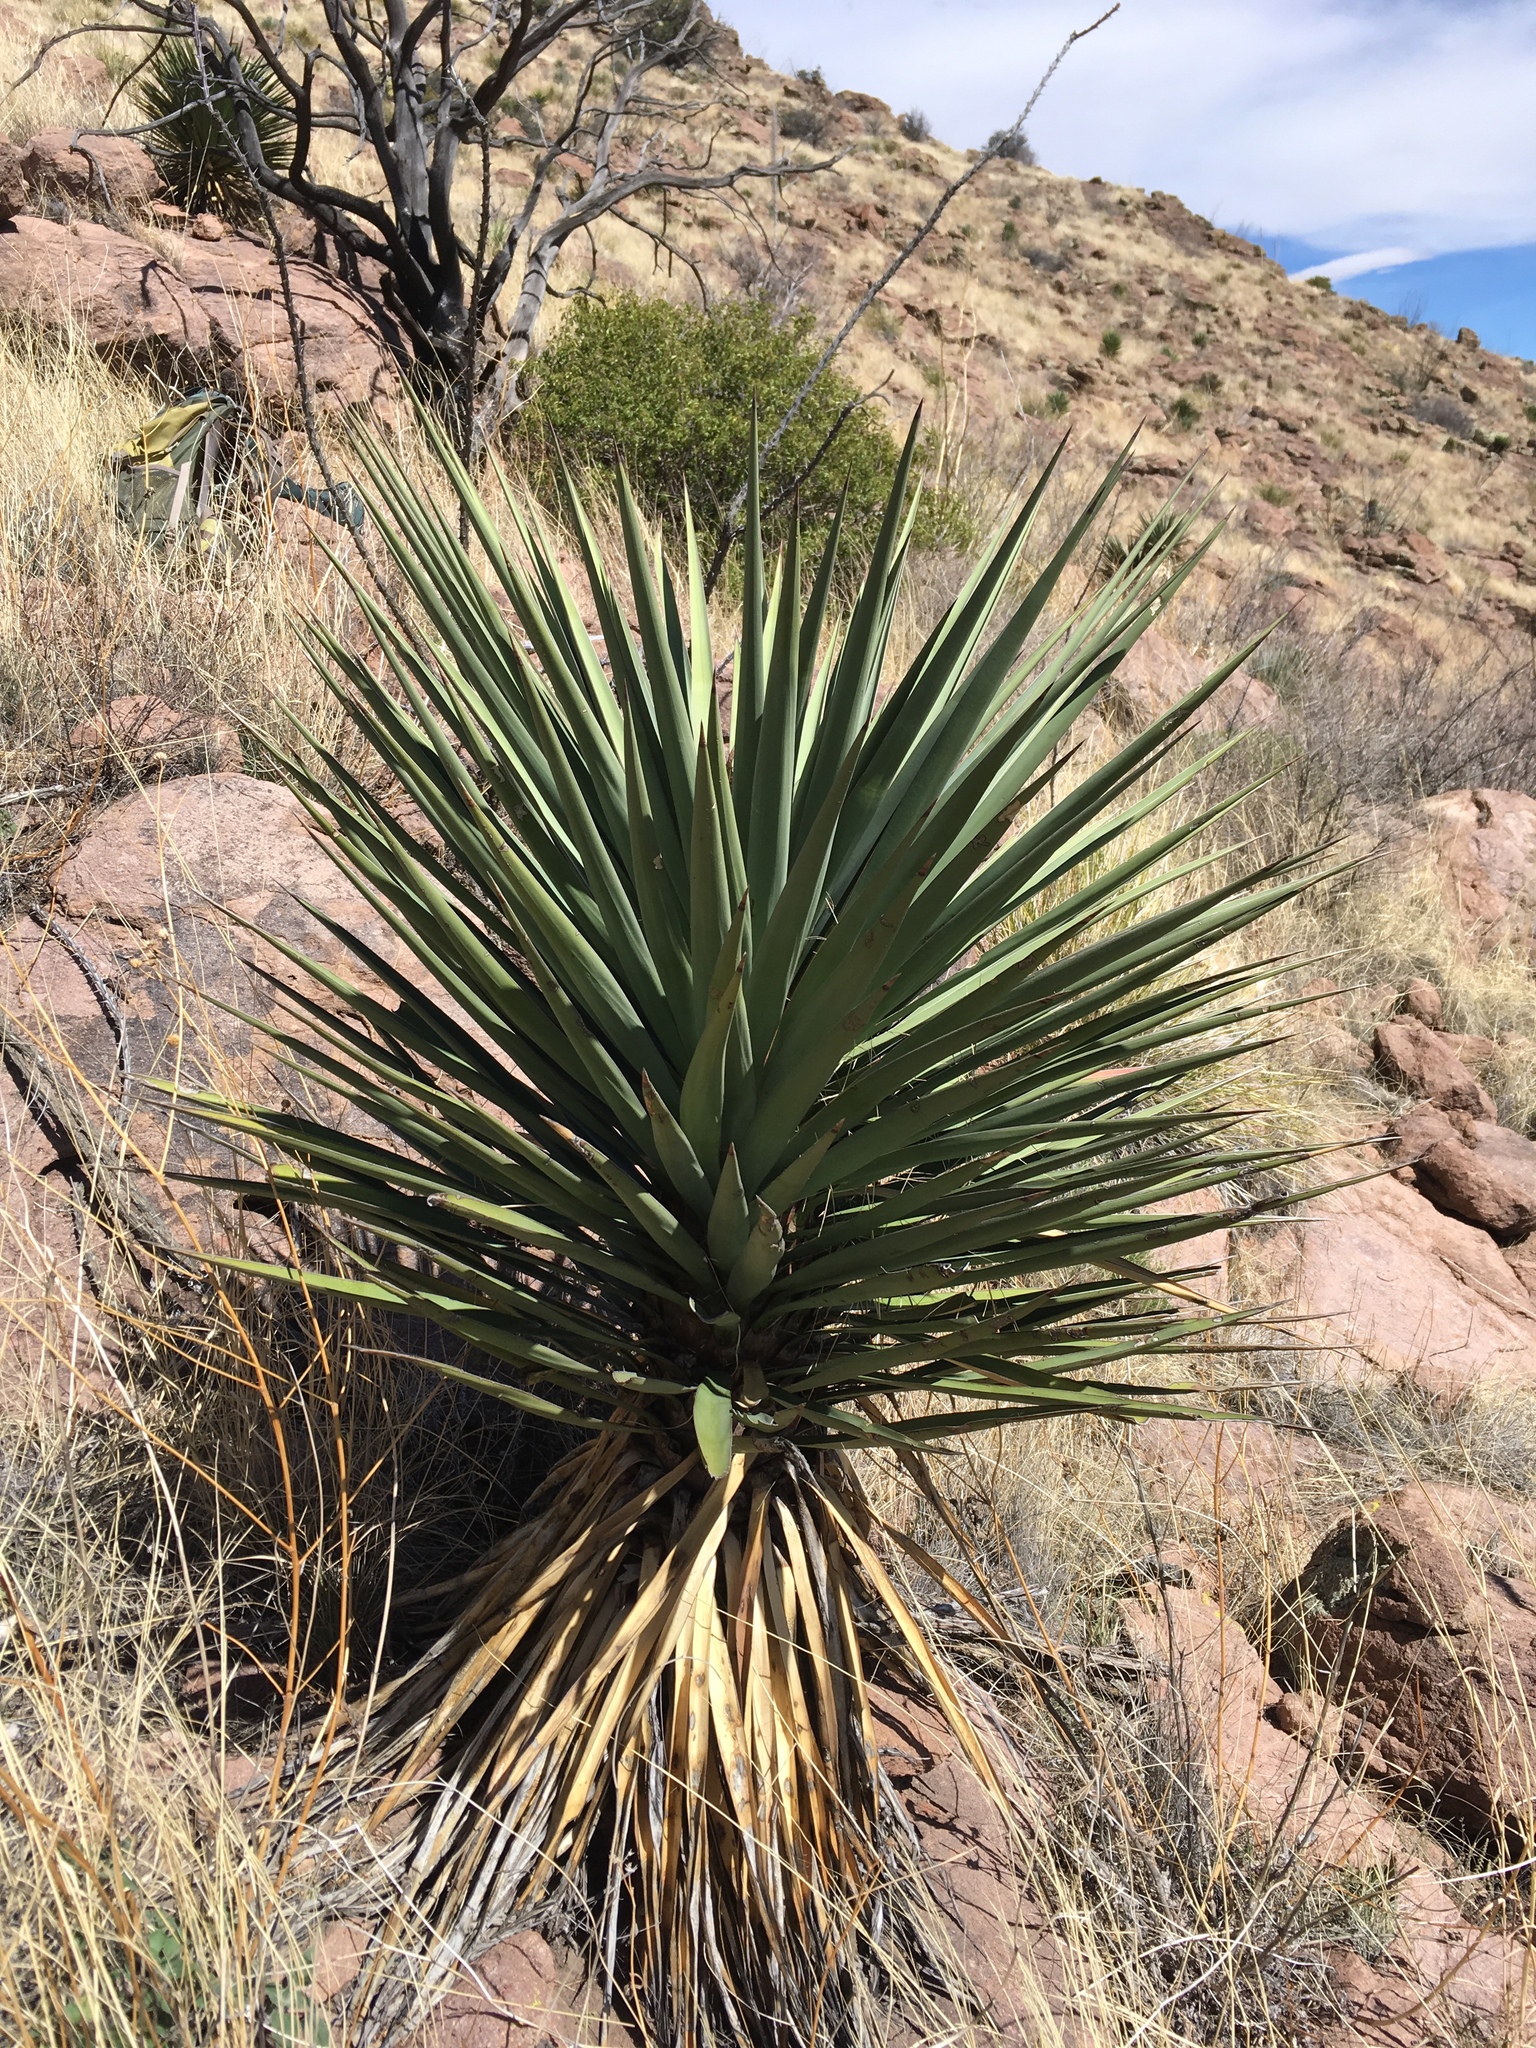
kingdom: Plantae
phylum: Tracheophyta
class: Liliopsida
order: Asparagales
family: Asparagaceae
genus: Yucca
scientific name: Yucca madrensis
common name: Hoary yucca
